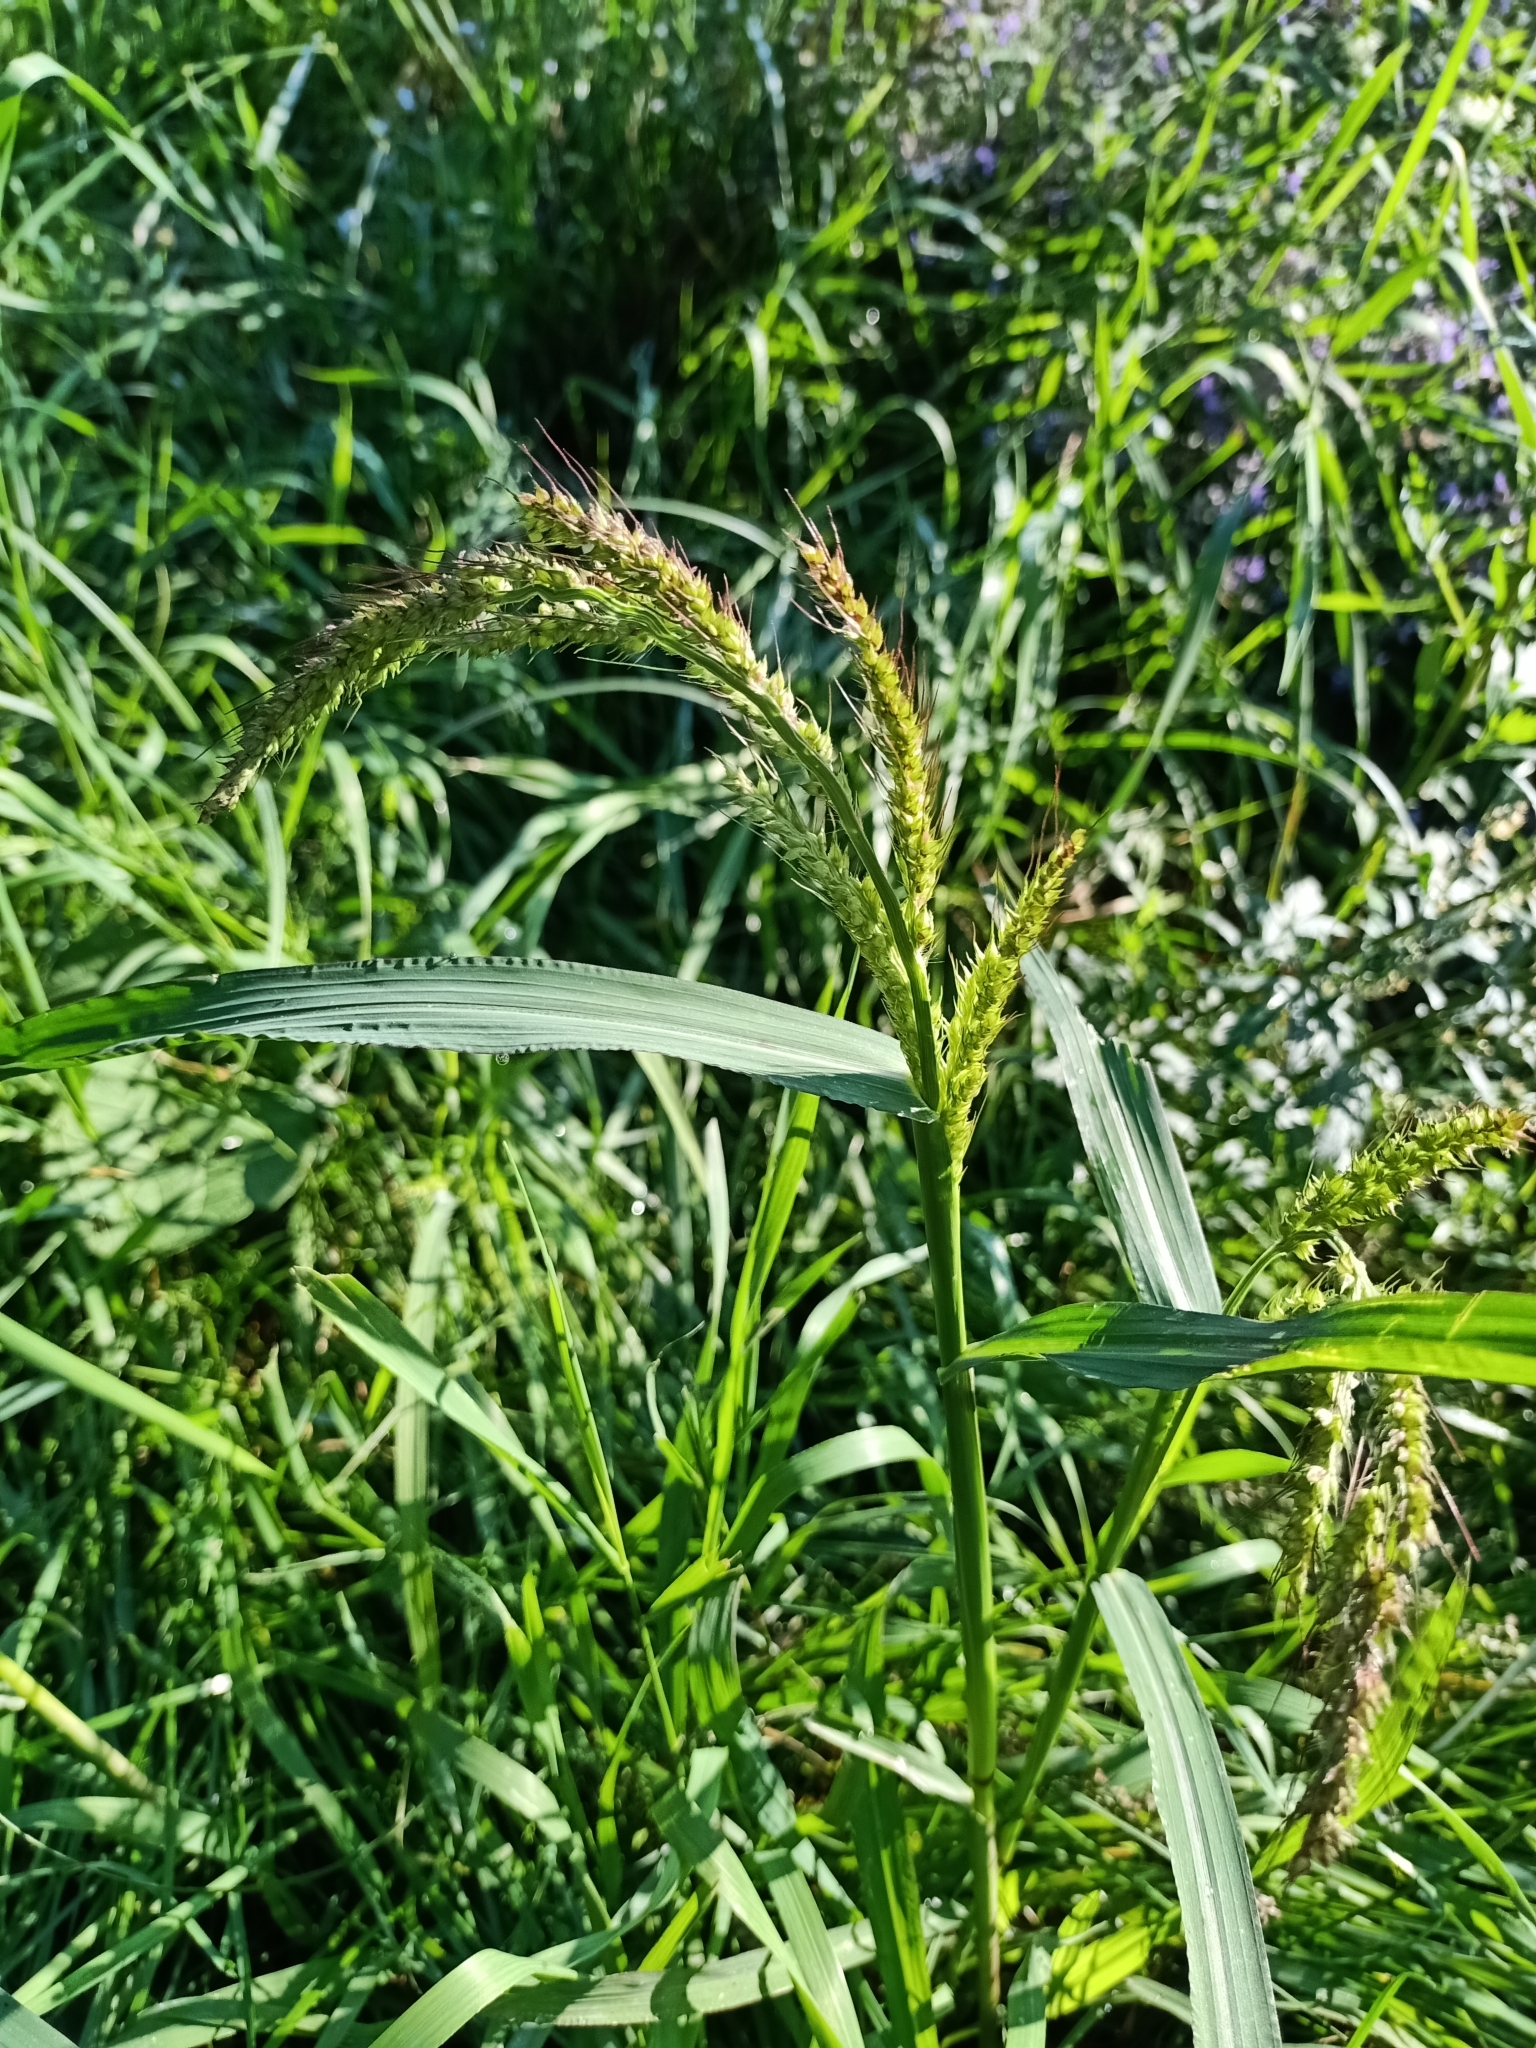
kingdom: Plantae
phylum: Tracheophyta
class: Liliopsida
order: Poales
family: Poaceae
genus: Echinochloa
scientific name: Echinochloa crus-galli
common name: Cockspur
